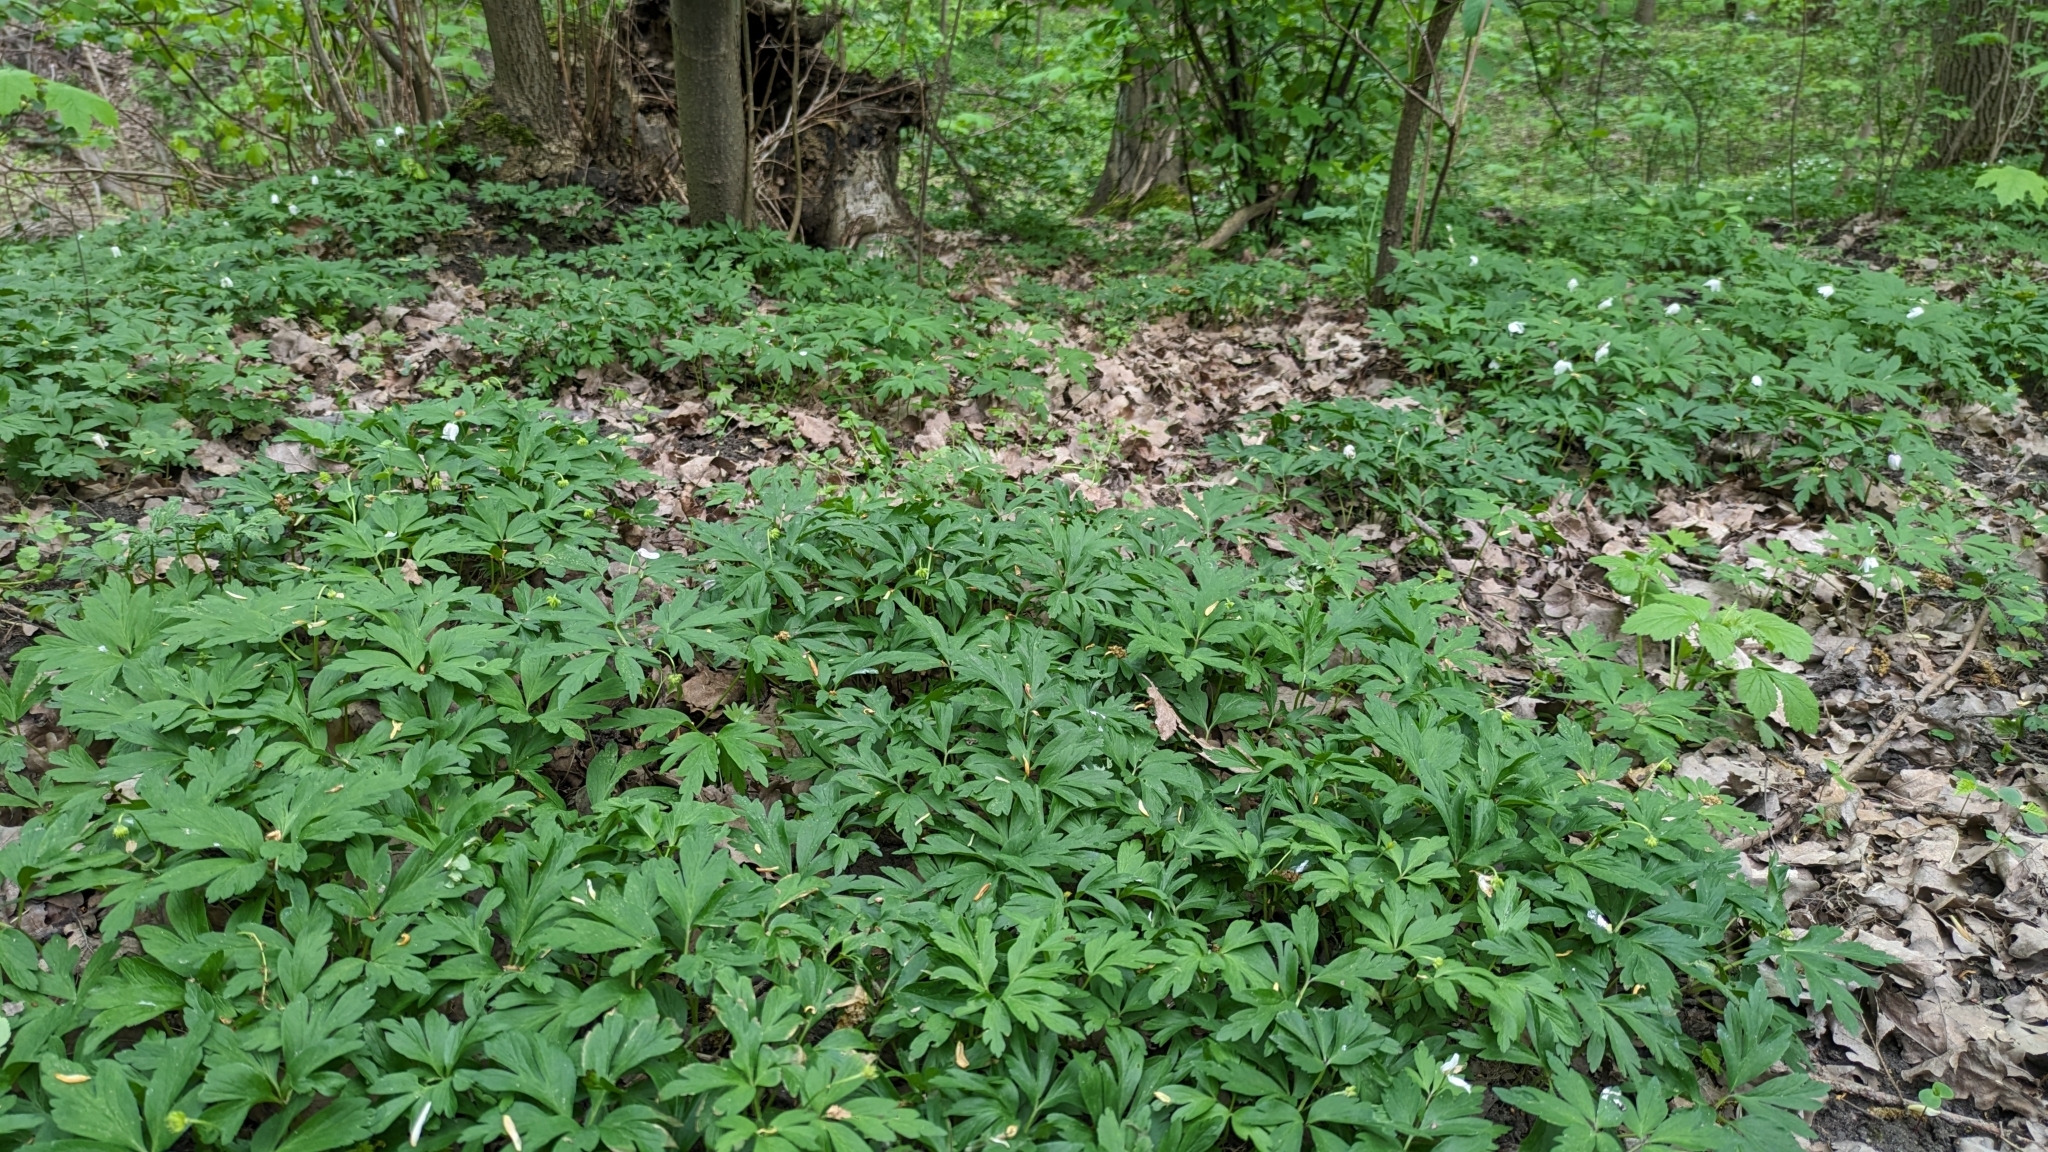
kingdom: Plantae
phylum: Tracheophyta
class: Magnoliopsida
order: Ranunculales
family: Ranunculaceae
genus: Anemone
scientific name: Anemone nemorosa
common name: Wood anemone
